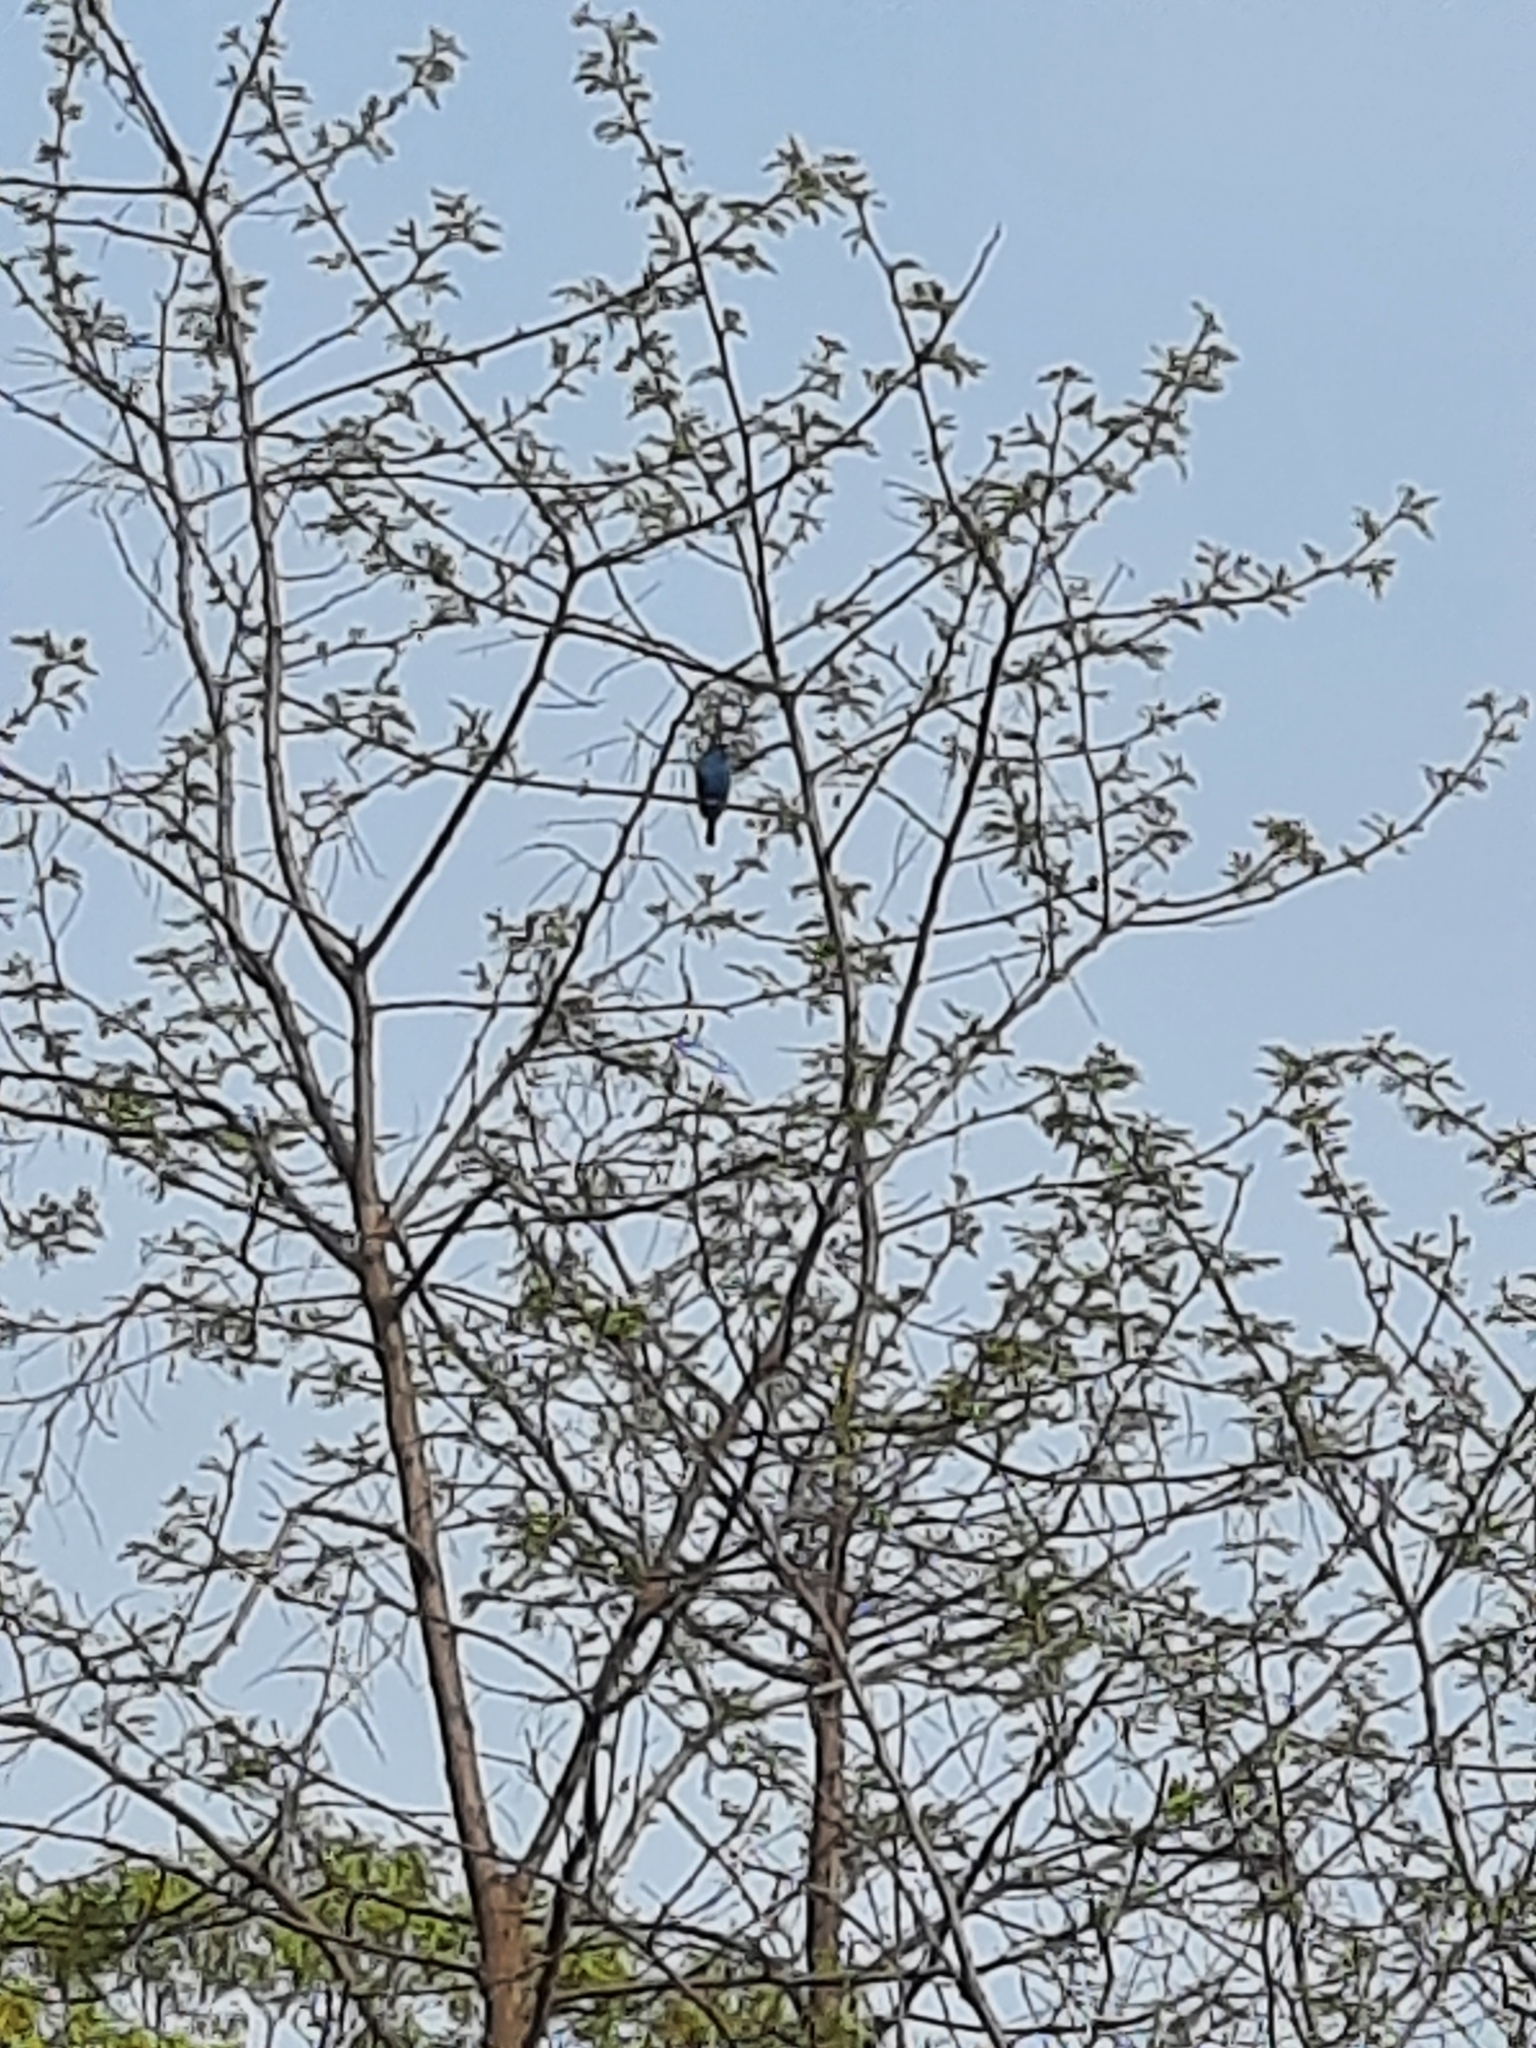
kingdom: Animalia
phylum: Chordata
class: Aves
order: Passeriformes
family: Cardinalidae
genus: Passerina
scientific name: Passerina cyanea
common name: Indigo bunting
